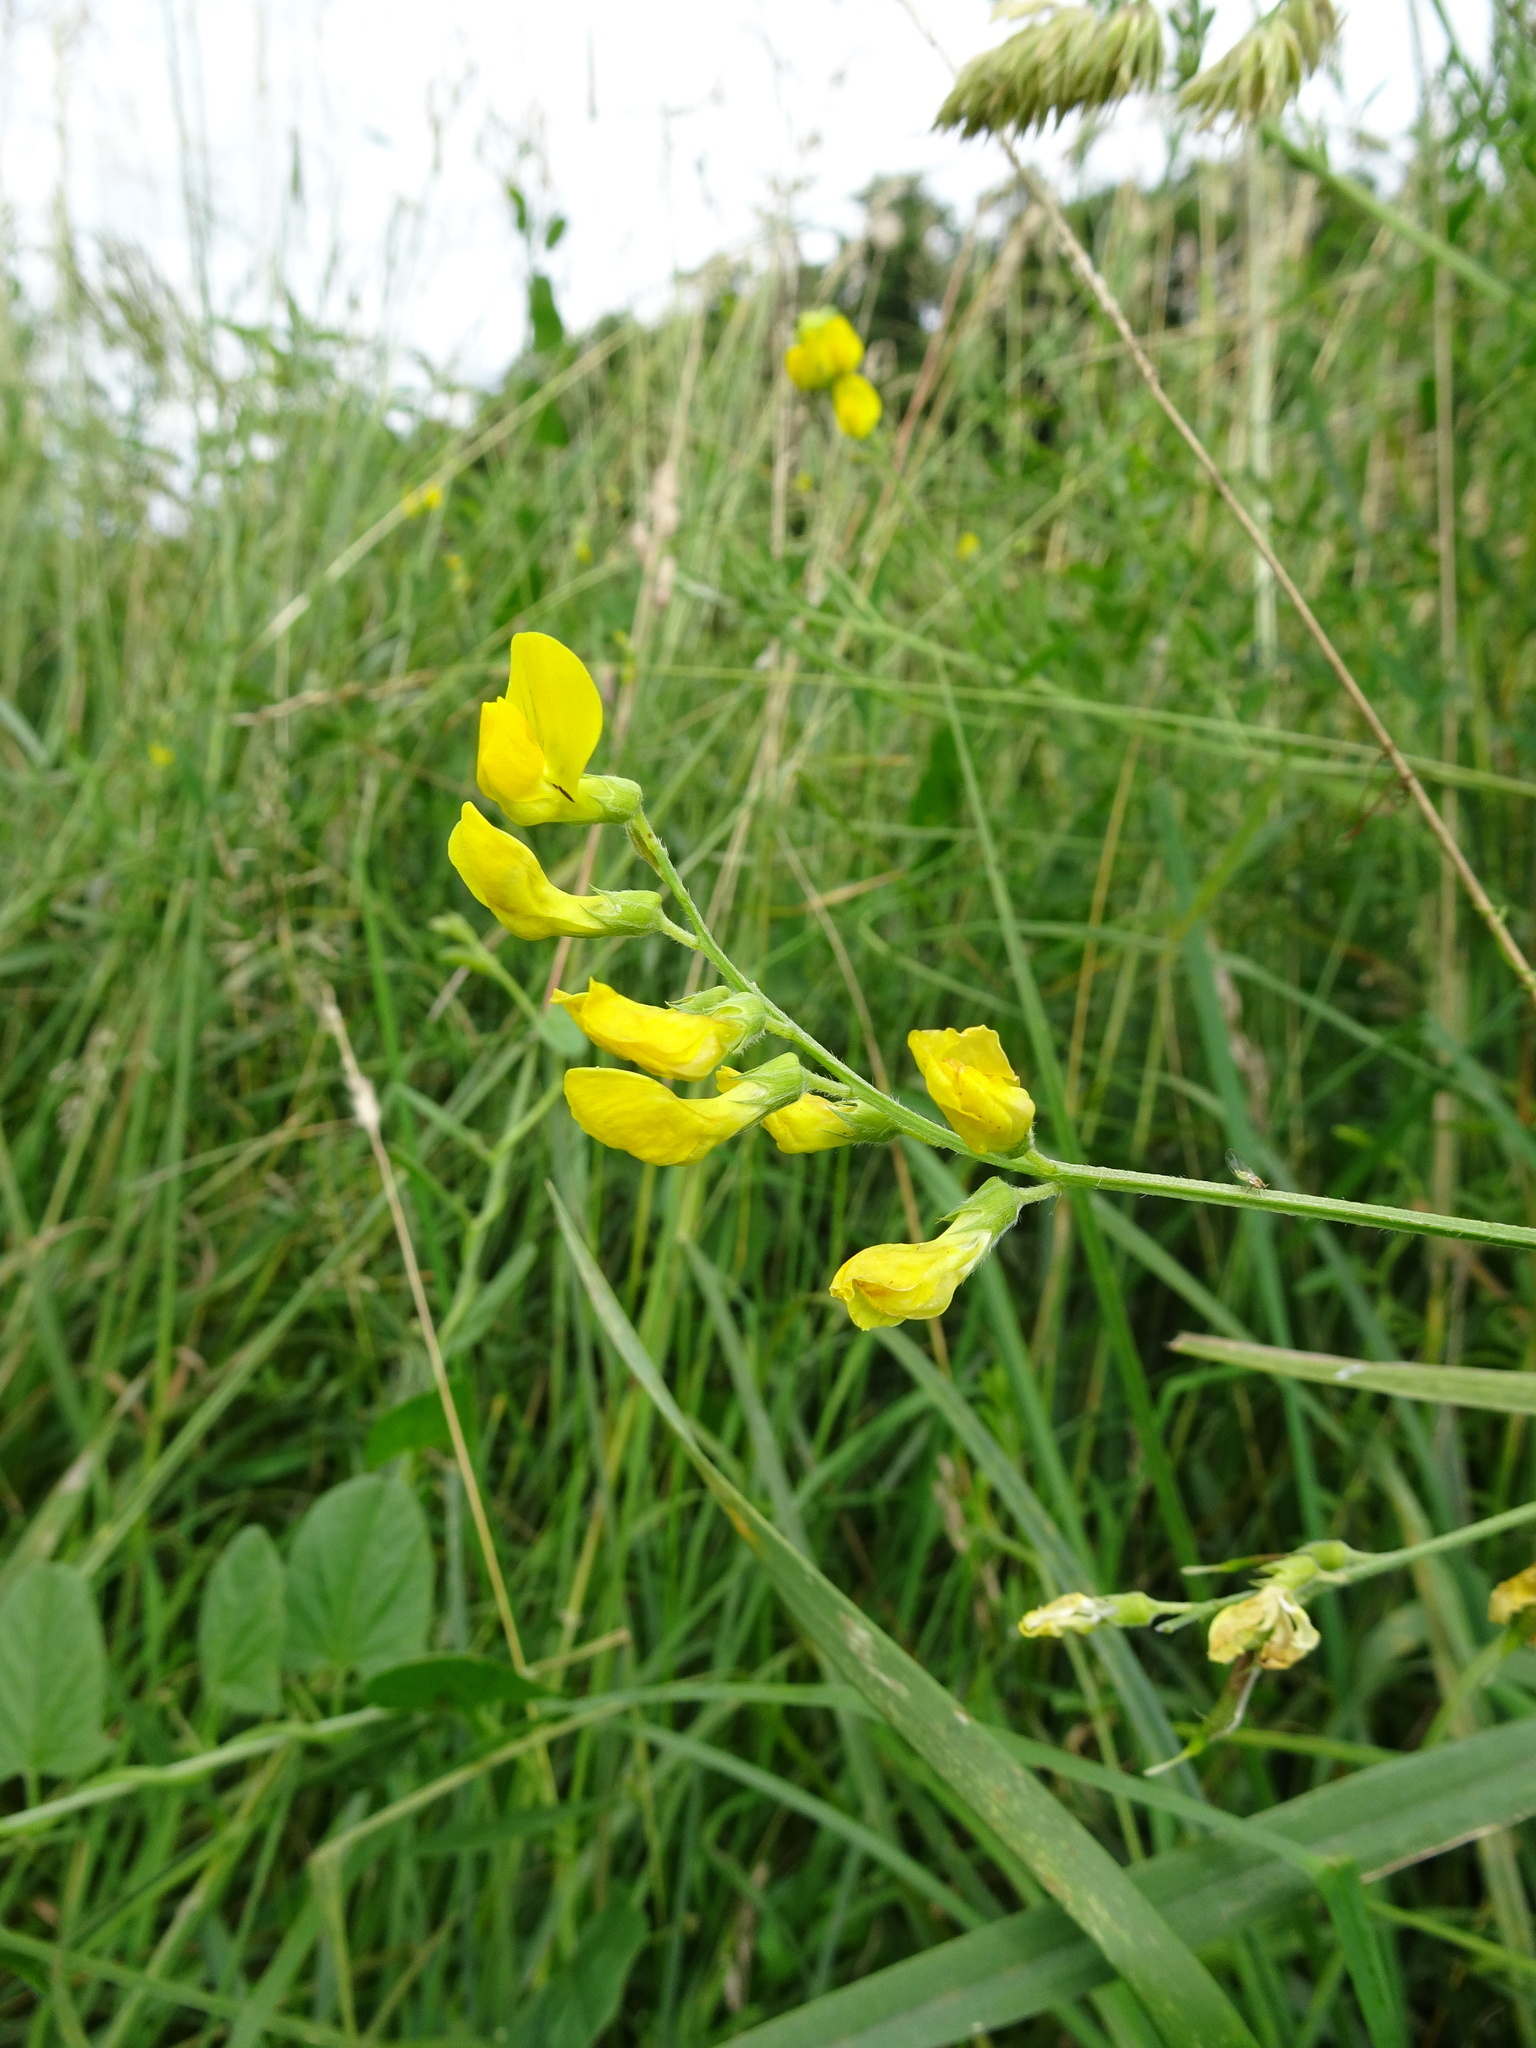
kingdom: Plantae
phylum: Tracheophyta
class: Magnoliopsida
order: Fabales
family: Fabaceae
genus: Lathyrus
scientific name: Lathyrus pratensis
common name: Meadow vetchling
